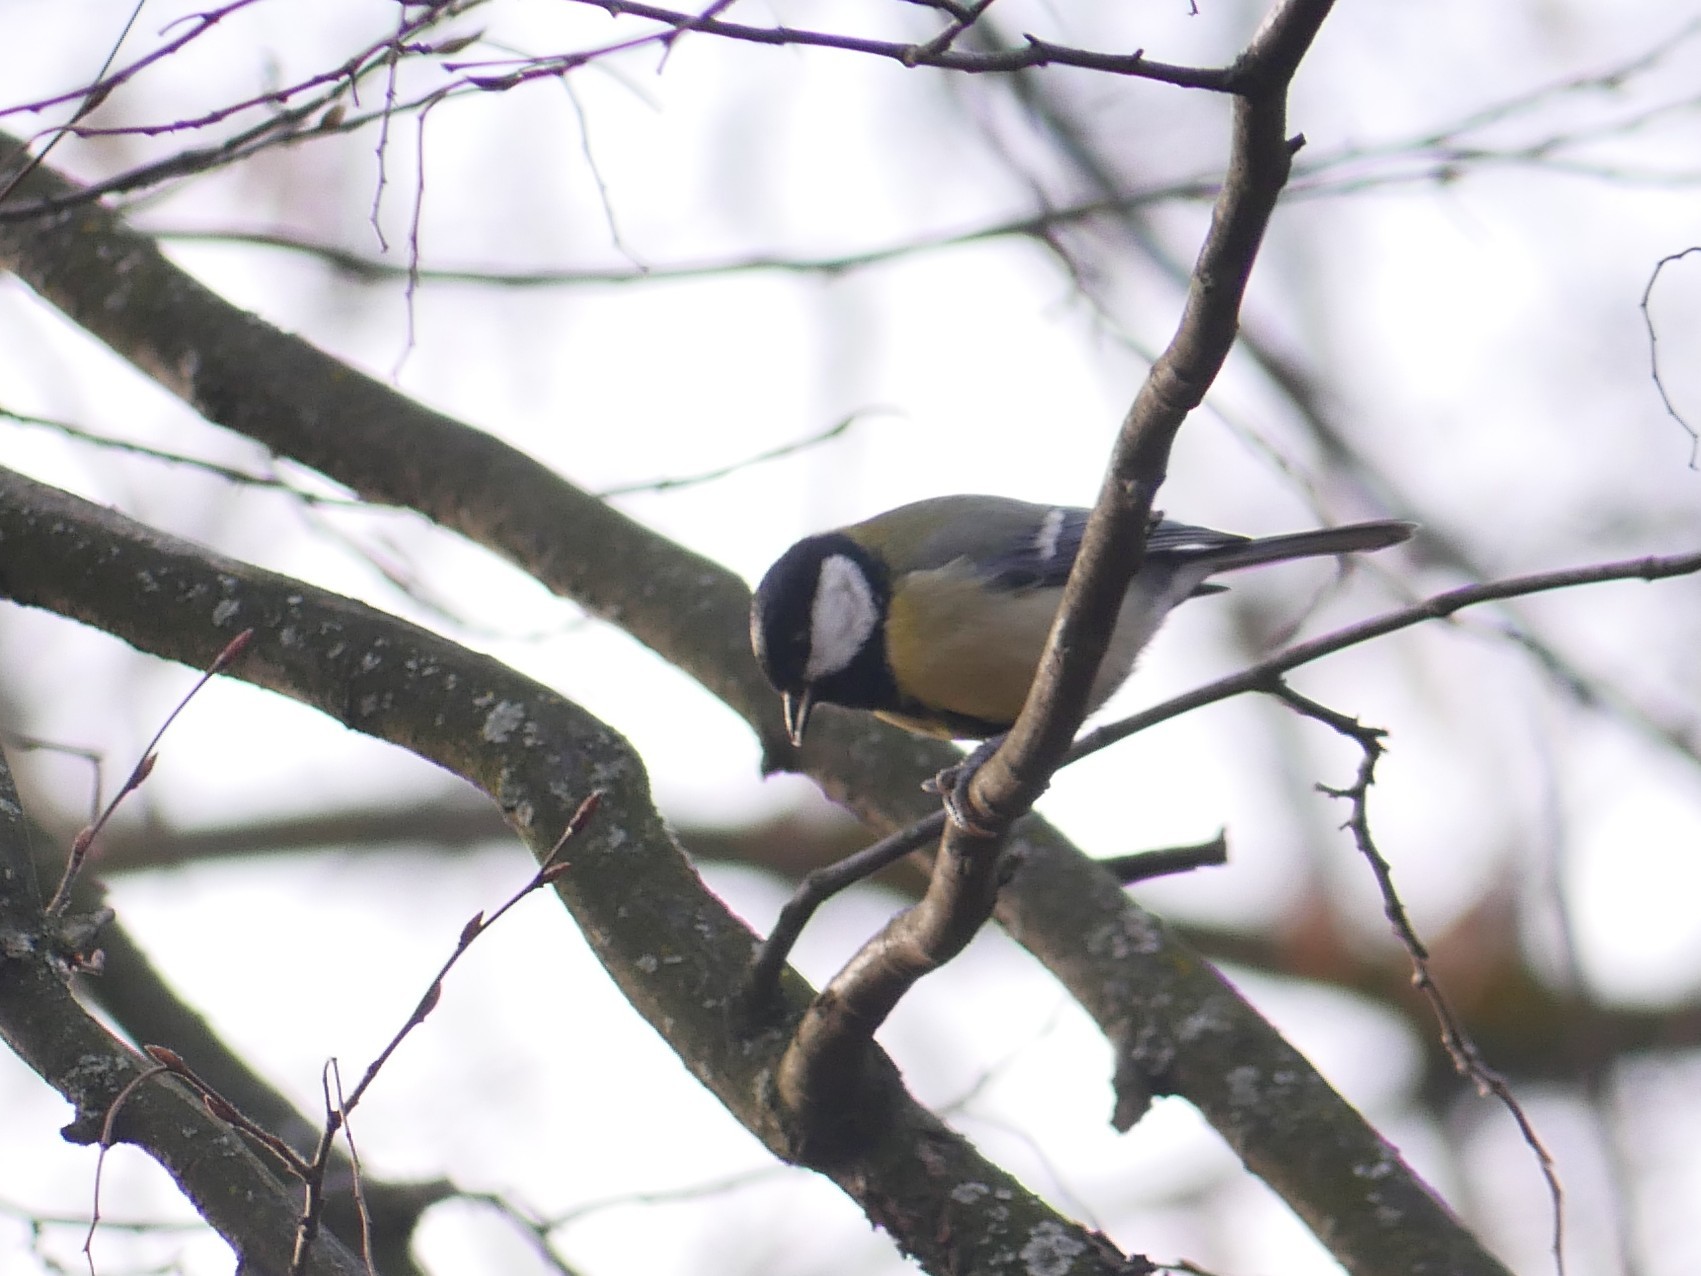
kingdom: Animalia
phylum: Chordata
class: Aves
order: Passeriformes
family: Paridae
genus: Parus
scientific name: Parus major
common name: Great tit
